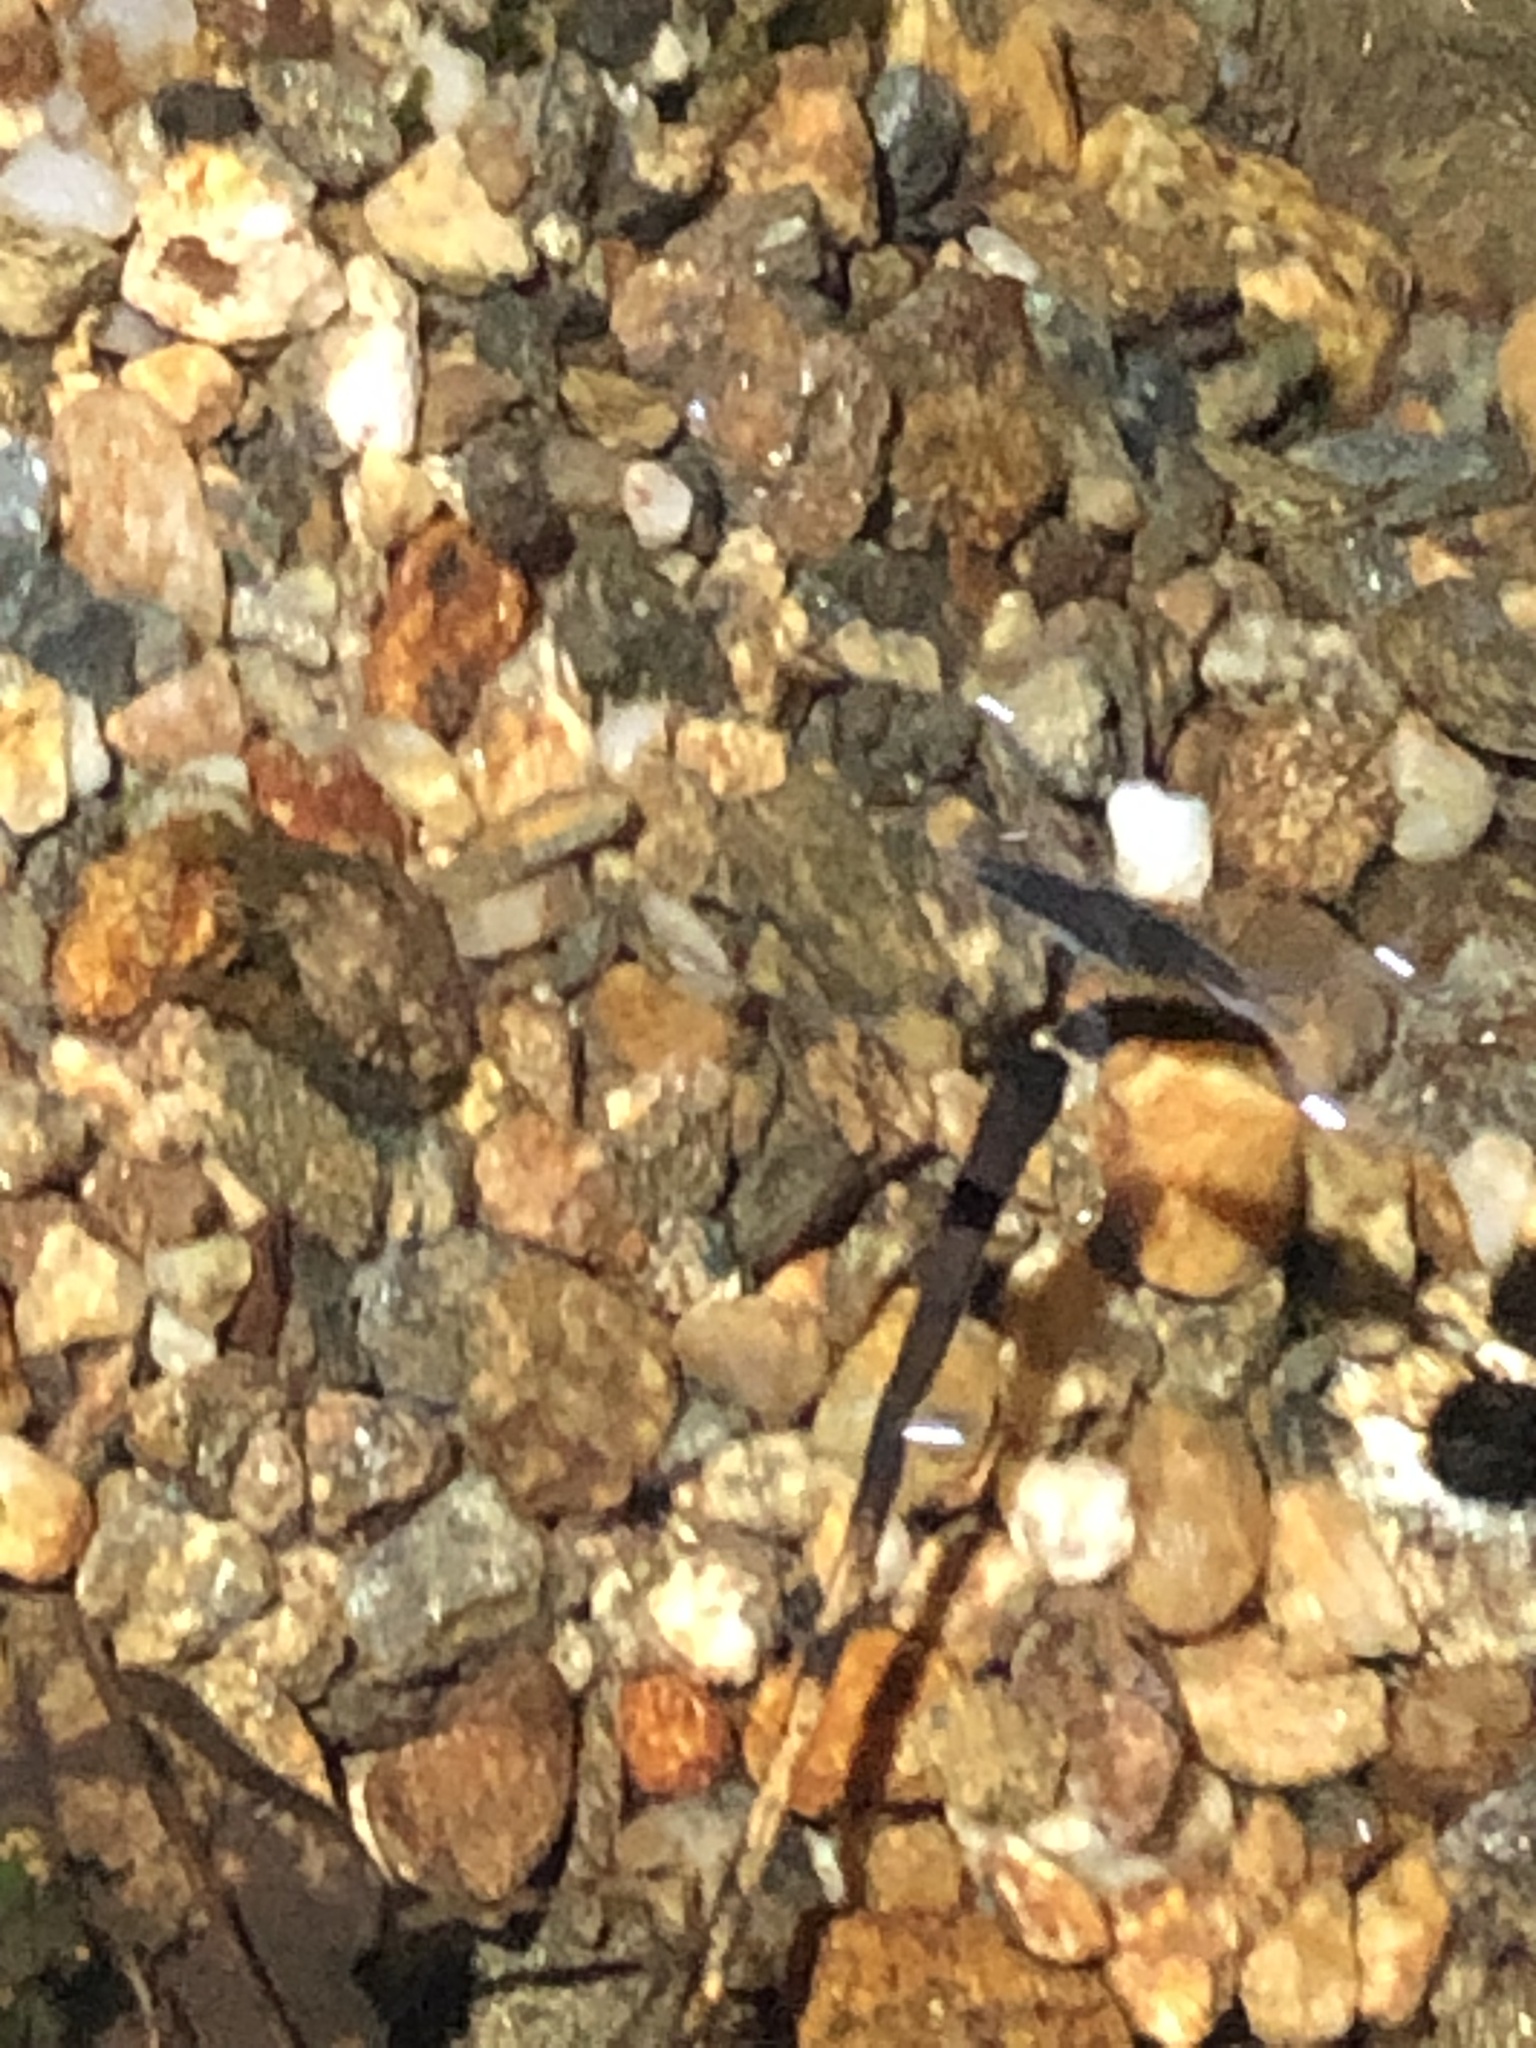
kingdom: Animalia
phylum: Arthropoda
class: Insecta
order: Hemiptera
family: Gerridae
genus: Aquarius
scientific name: Aquarius remigis
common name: Common water strider
